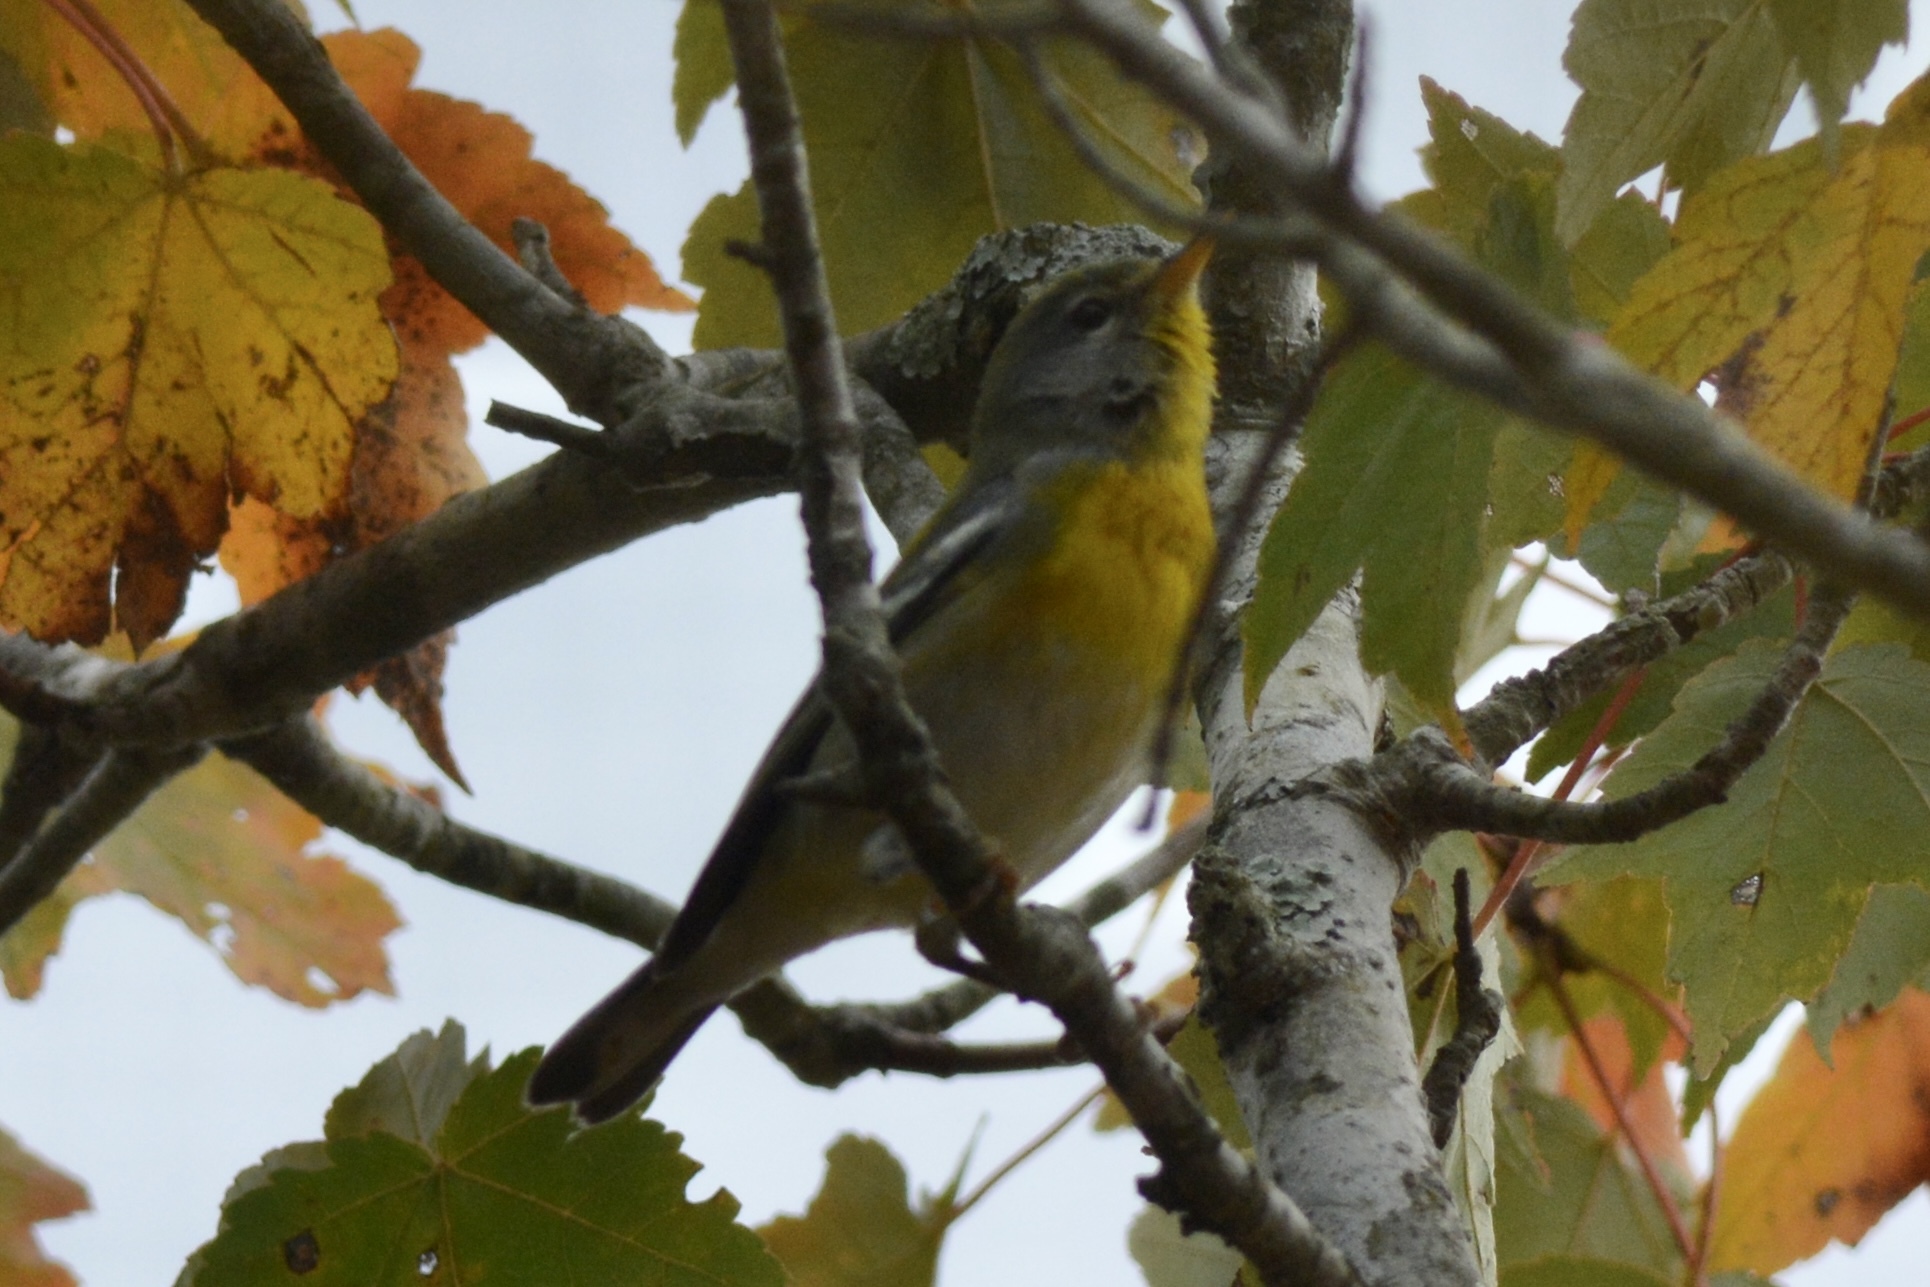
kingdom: Animalia
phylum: Chordata
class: Aves
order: Passeriformes
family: Parulidae
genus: Setophaga
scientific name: Setophaga americana
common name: Northern parula
